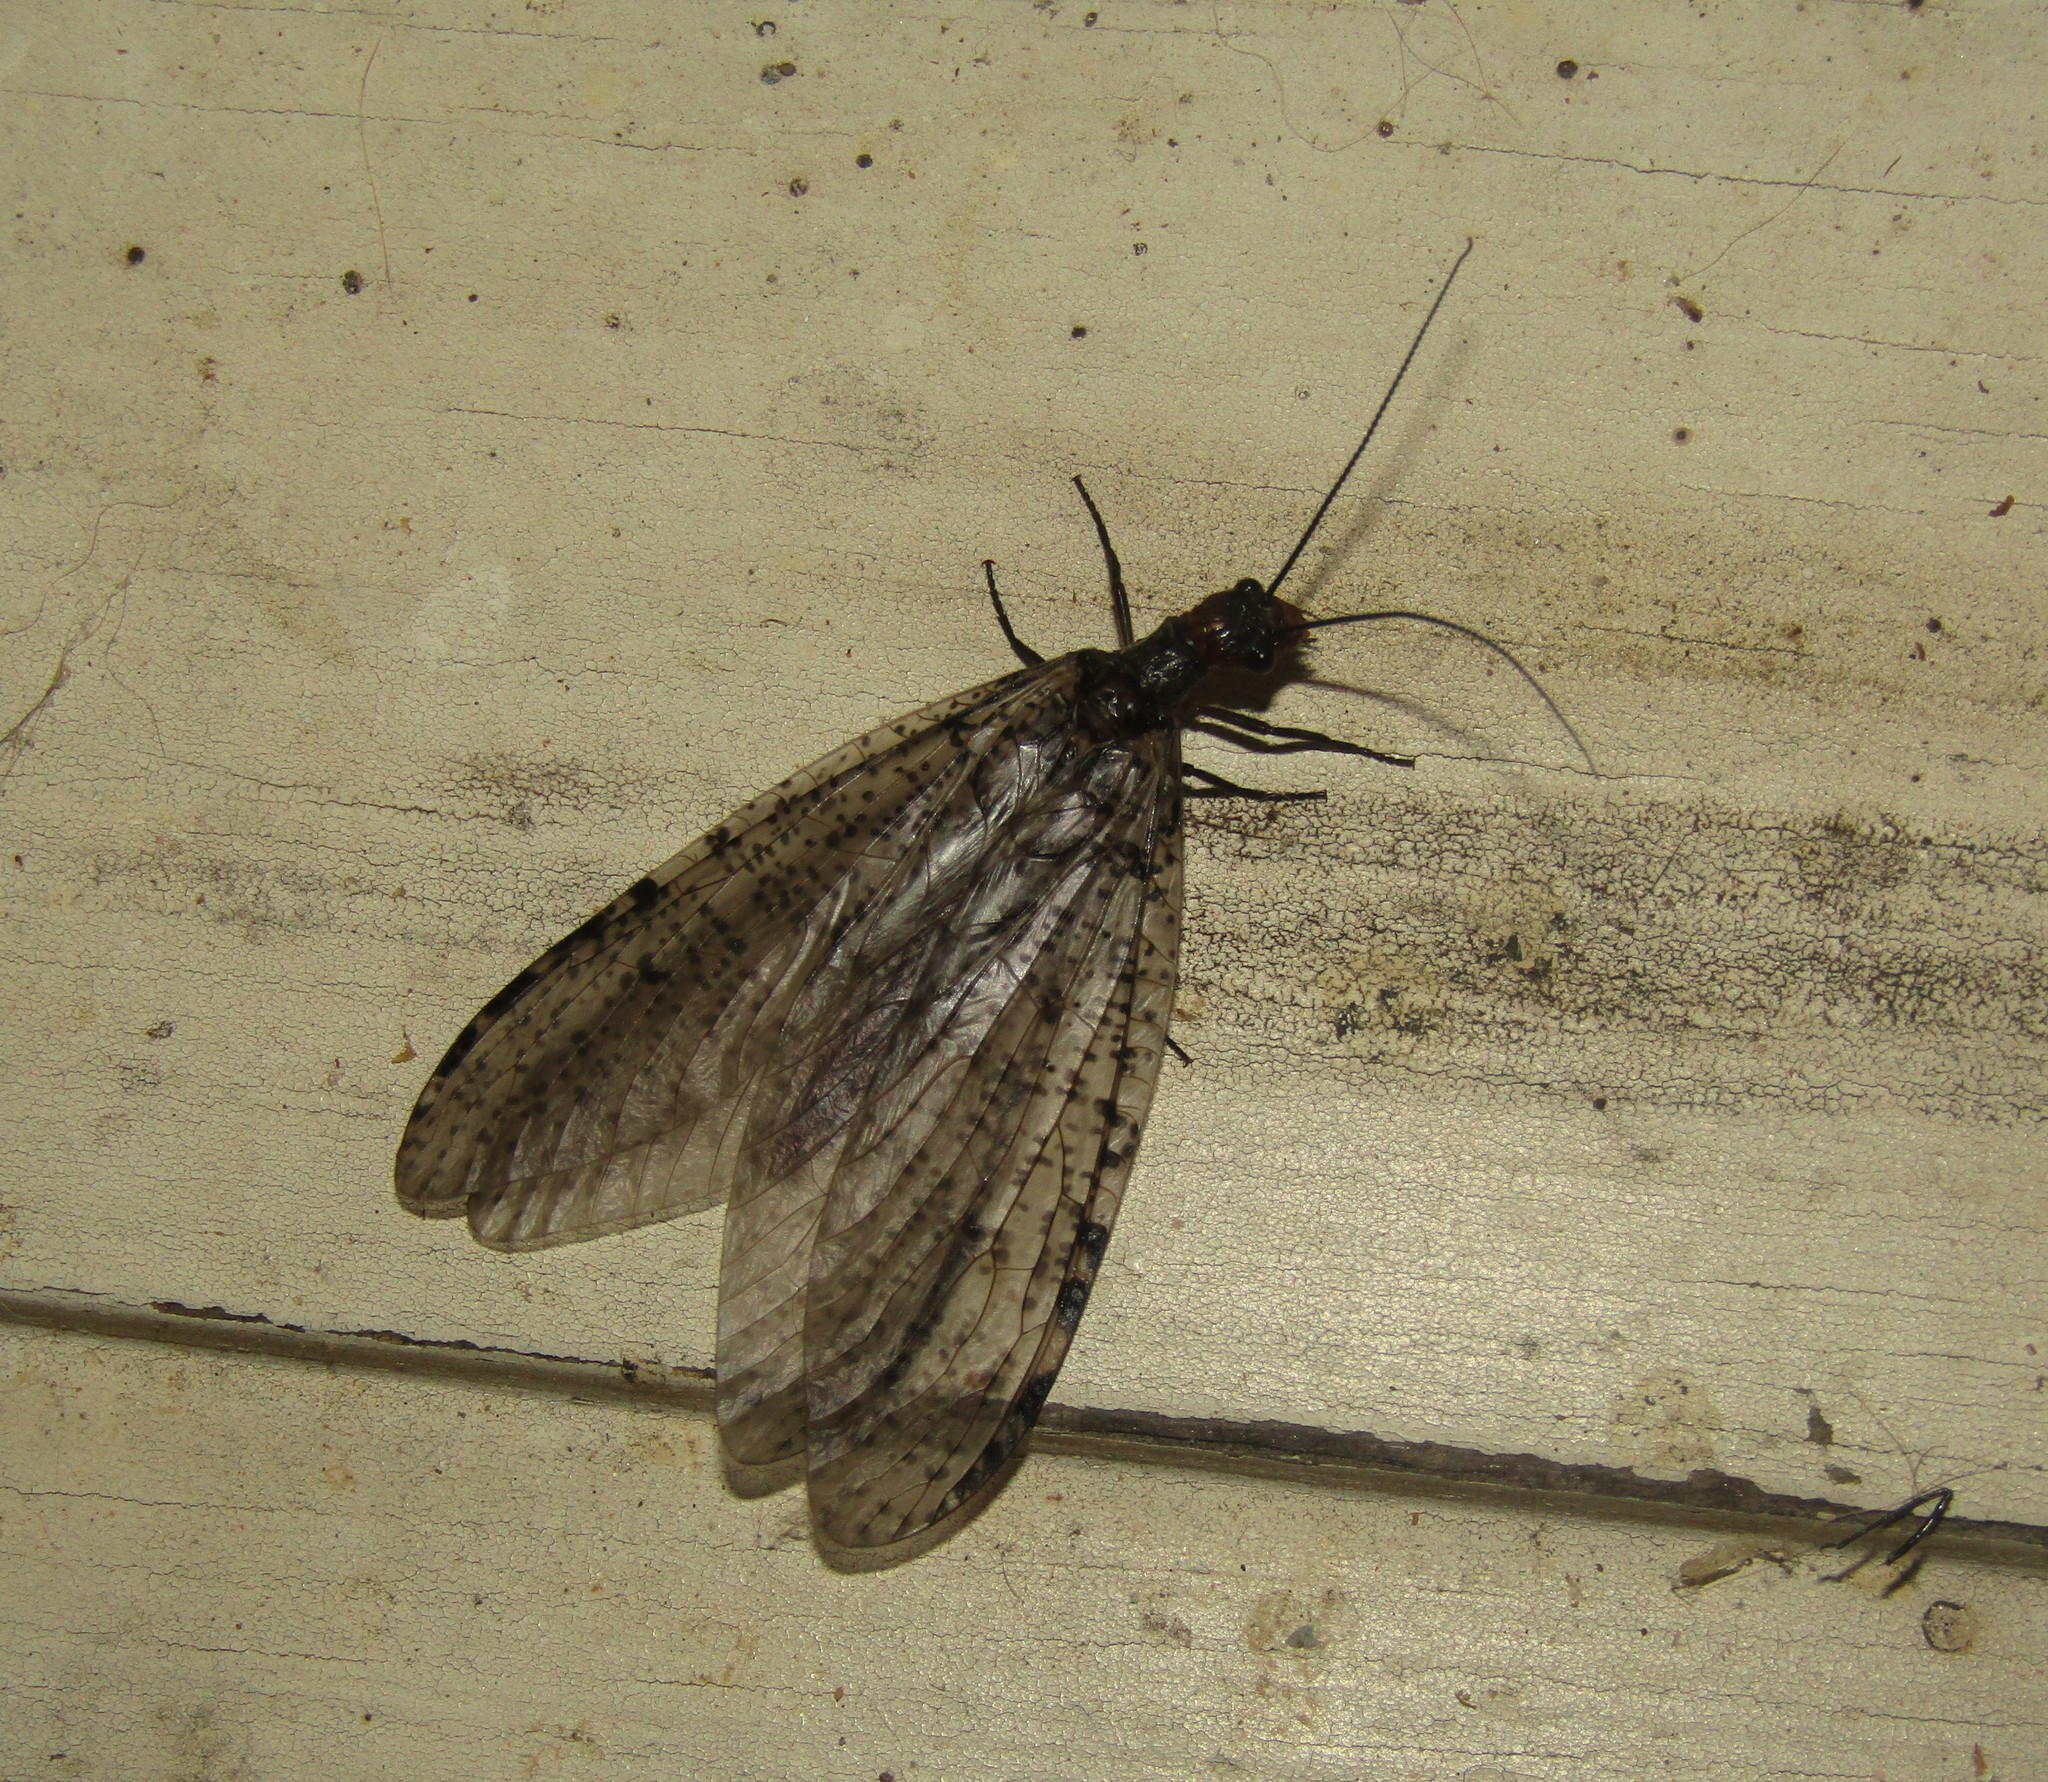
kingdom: Animalia
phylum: Arthropoda
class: Insecta
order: Megaloptera
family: Corydalidae
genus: Neohermes
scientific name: Neohermes concolor
